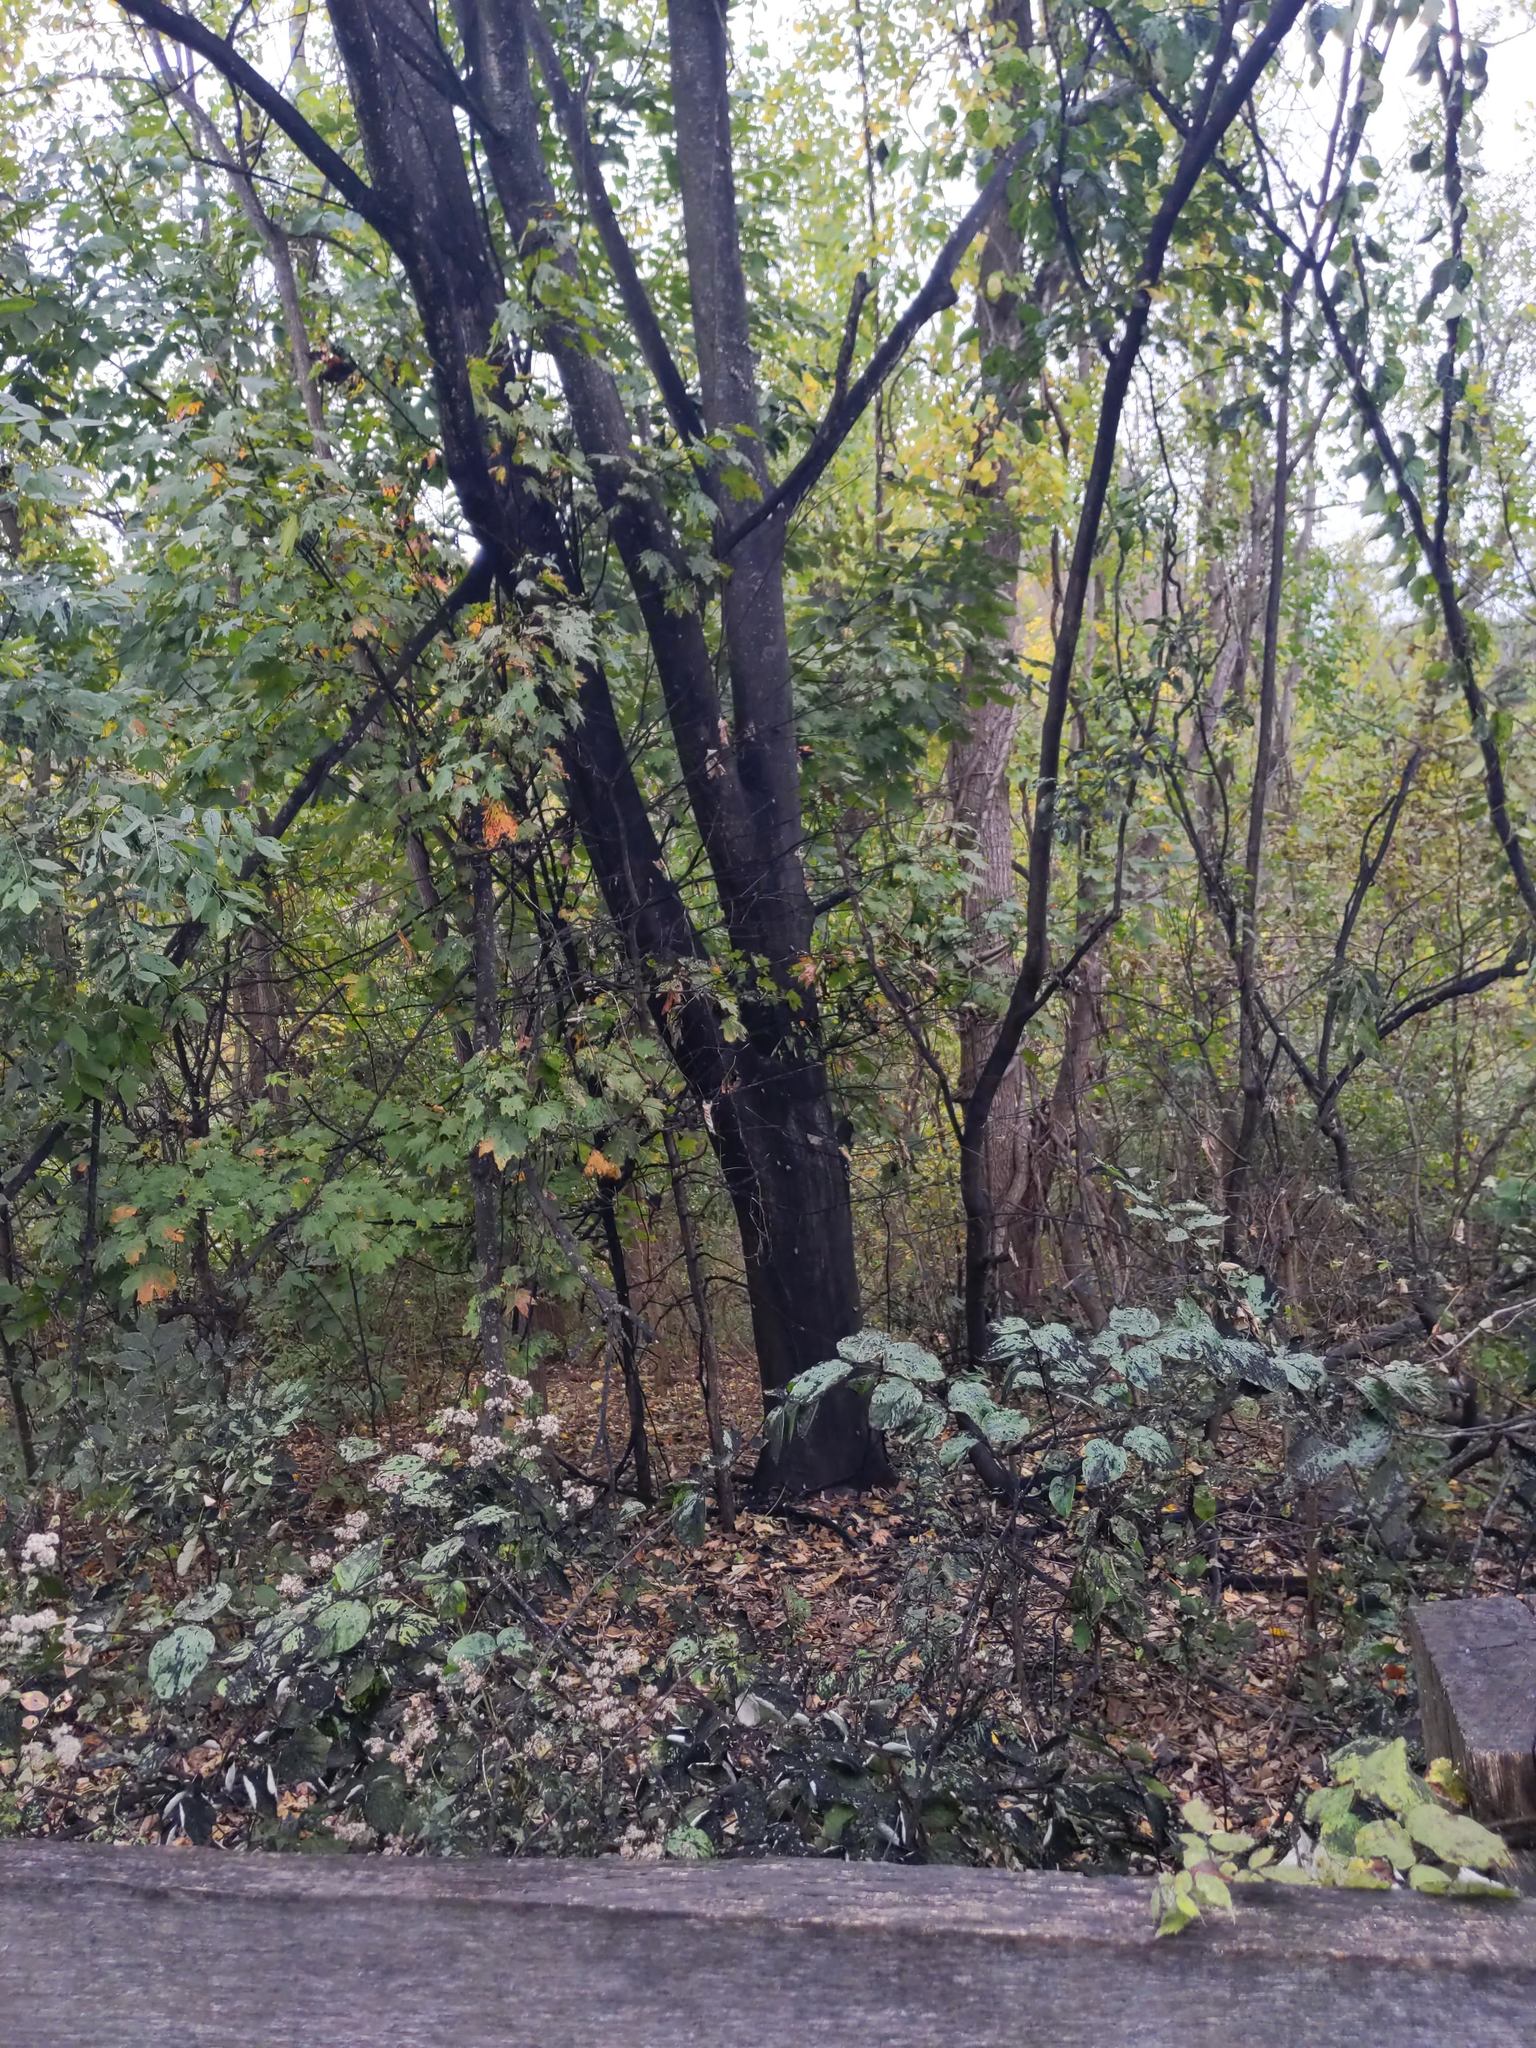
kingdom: Animalia
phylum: Arthropoda
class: Insecta
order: Hemiptera
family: Fulgoridae
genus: Lycorma
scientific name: Lycorma delicatula
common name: Spotted lanternfly
